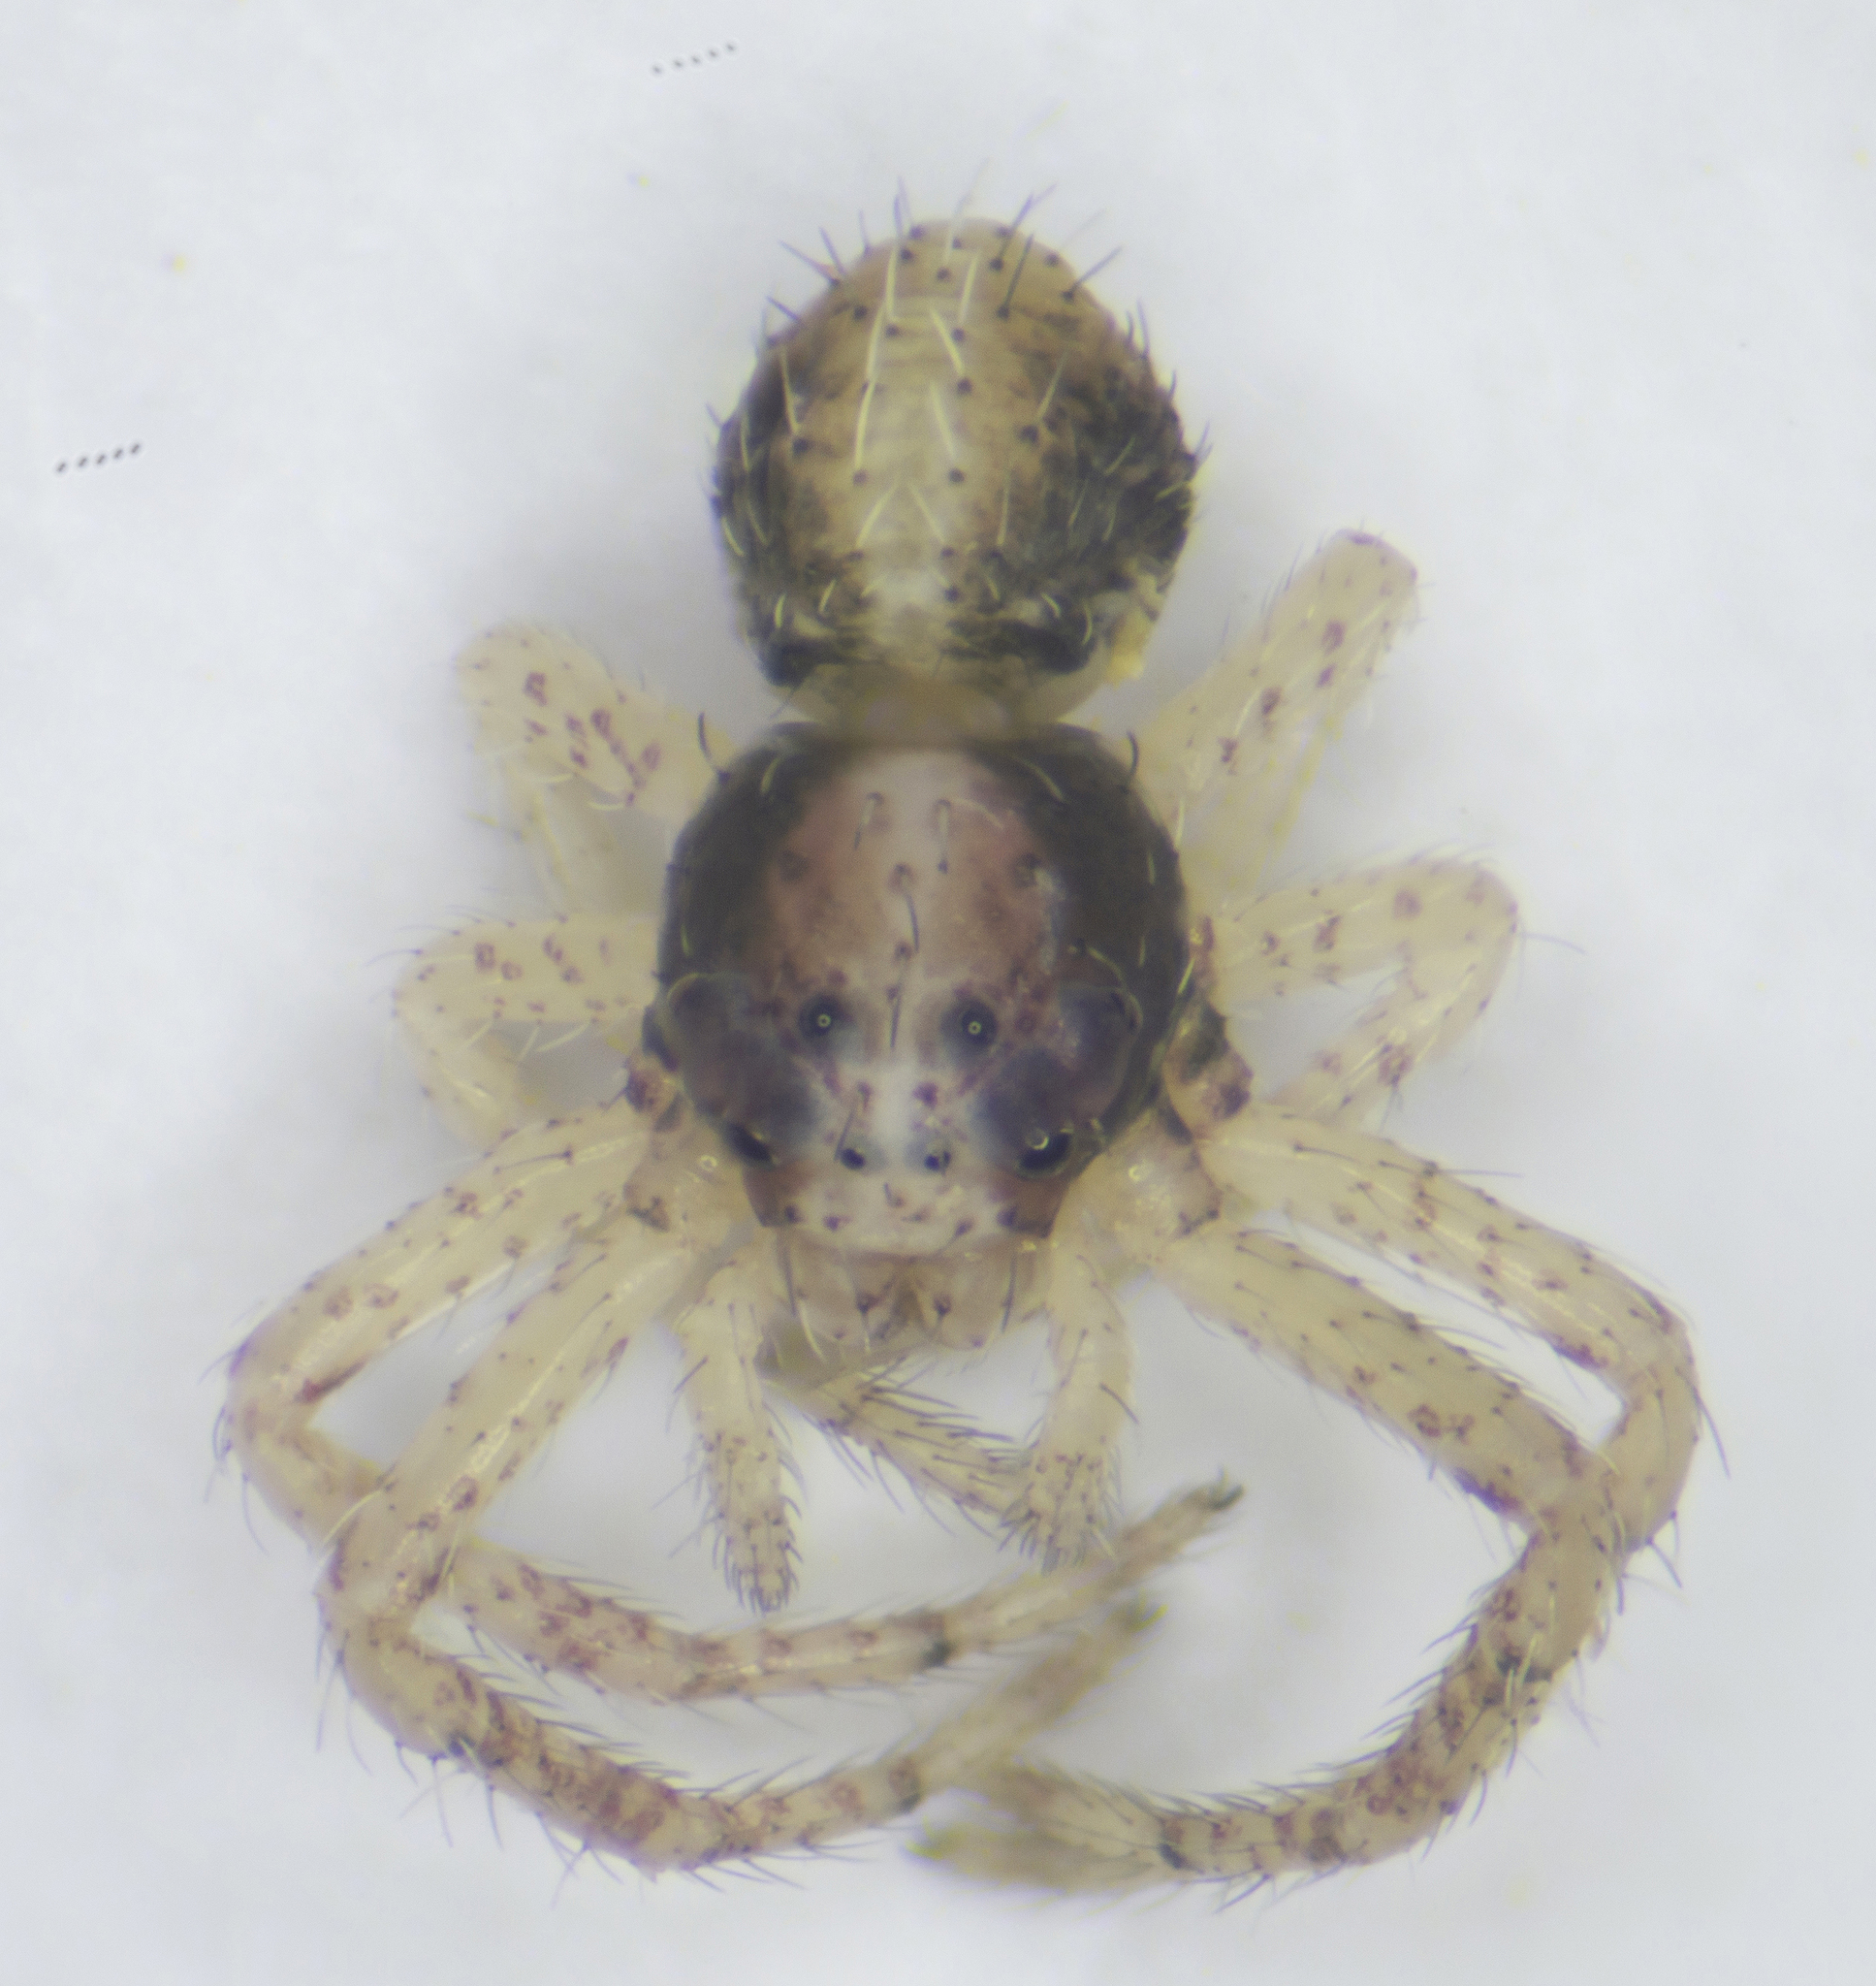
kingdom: Animalia
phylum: Arthropoda
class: Arachnida
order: Araneae
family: Thomisidae
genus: Tmarus
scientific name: Tmarus
